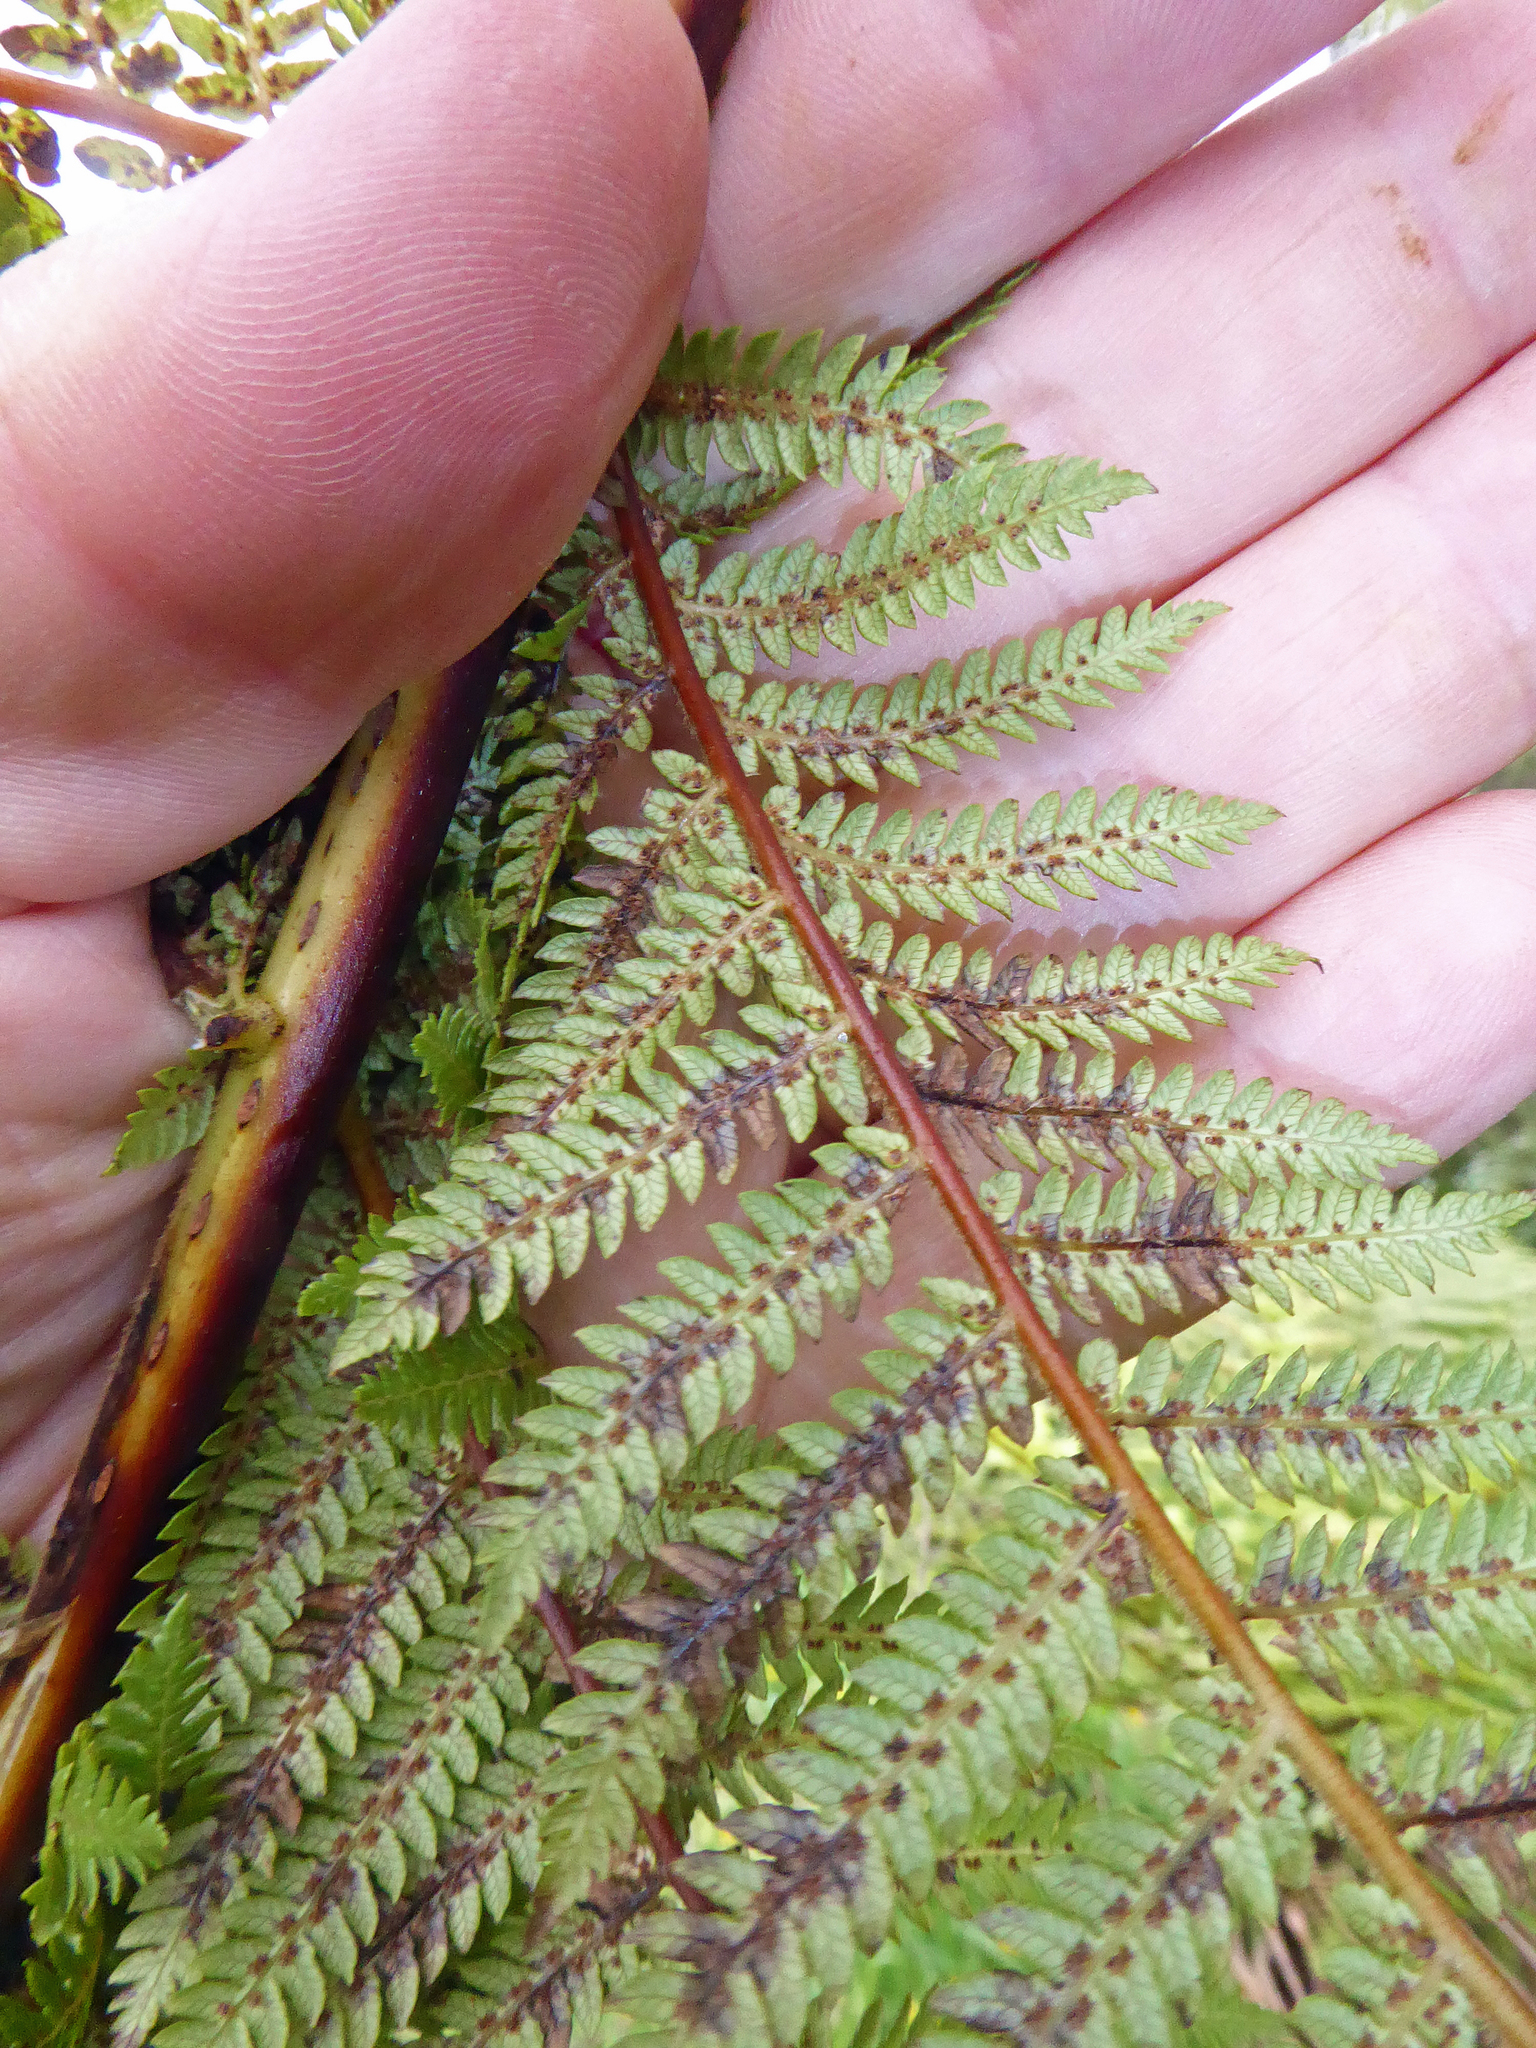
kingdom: Plantae
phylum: Tracheophyta
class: Polypodiopsida
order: Cyatheales
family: Cyatheaceae
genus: Cyathea
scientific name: Cyathea cunninghamii
